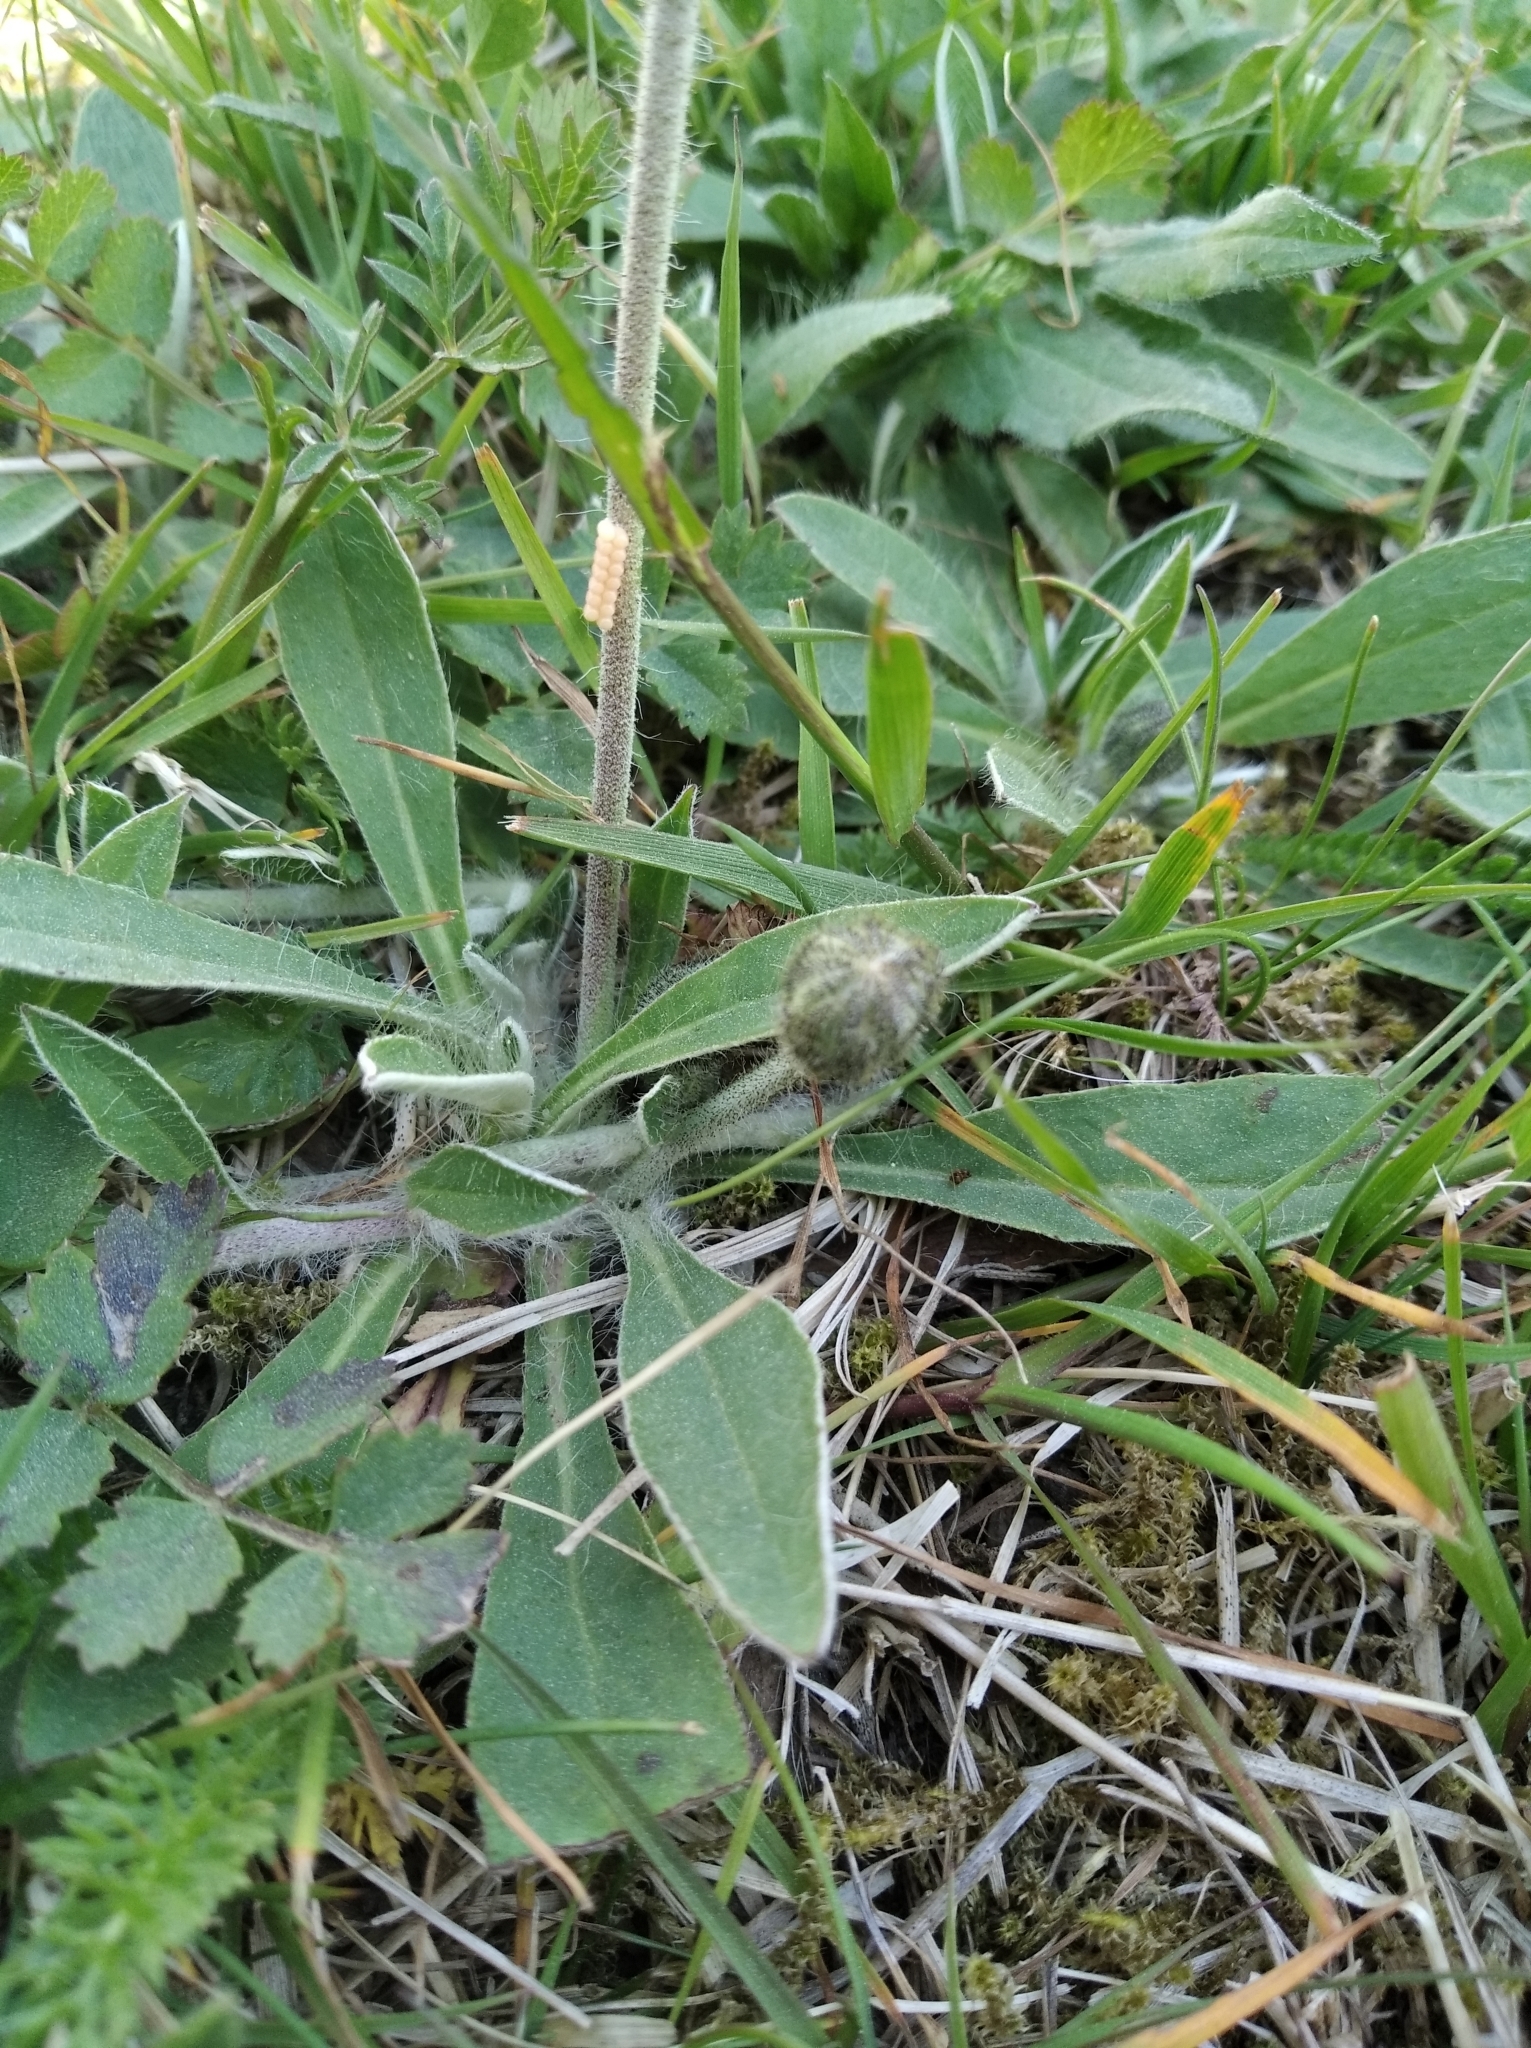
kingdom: Plantae
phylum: Tracheophyta
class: Magnoliopsida
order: Asterales
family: Asteraceae
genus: Pilosella
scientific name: Pilosella officinarum
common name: Mouse-ear hawkweed
